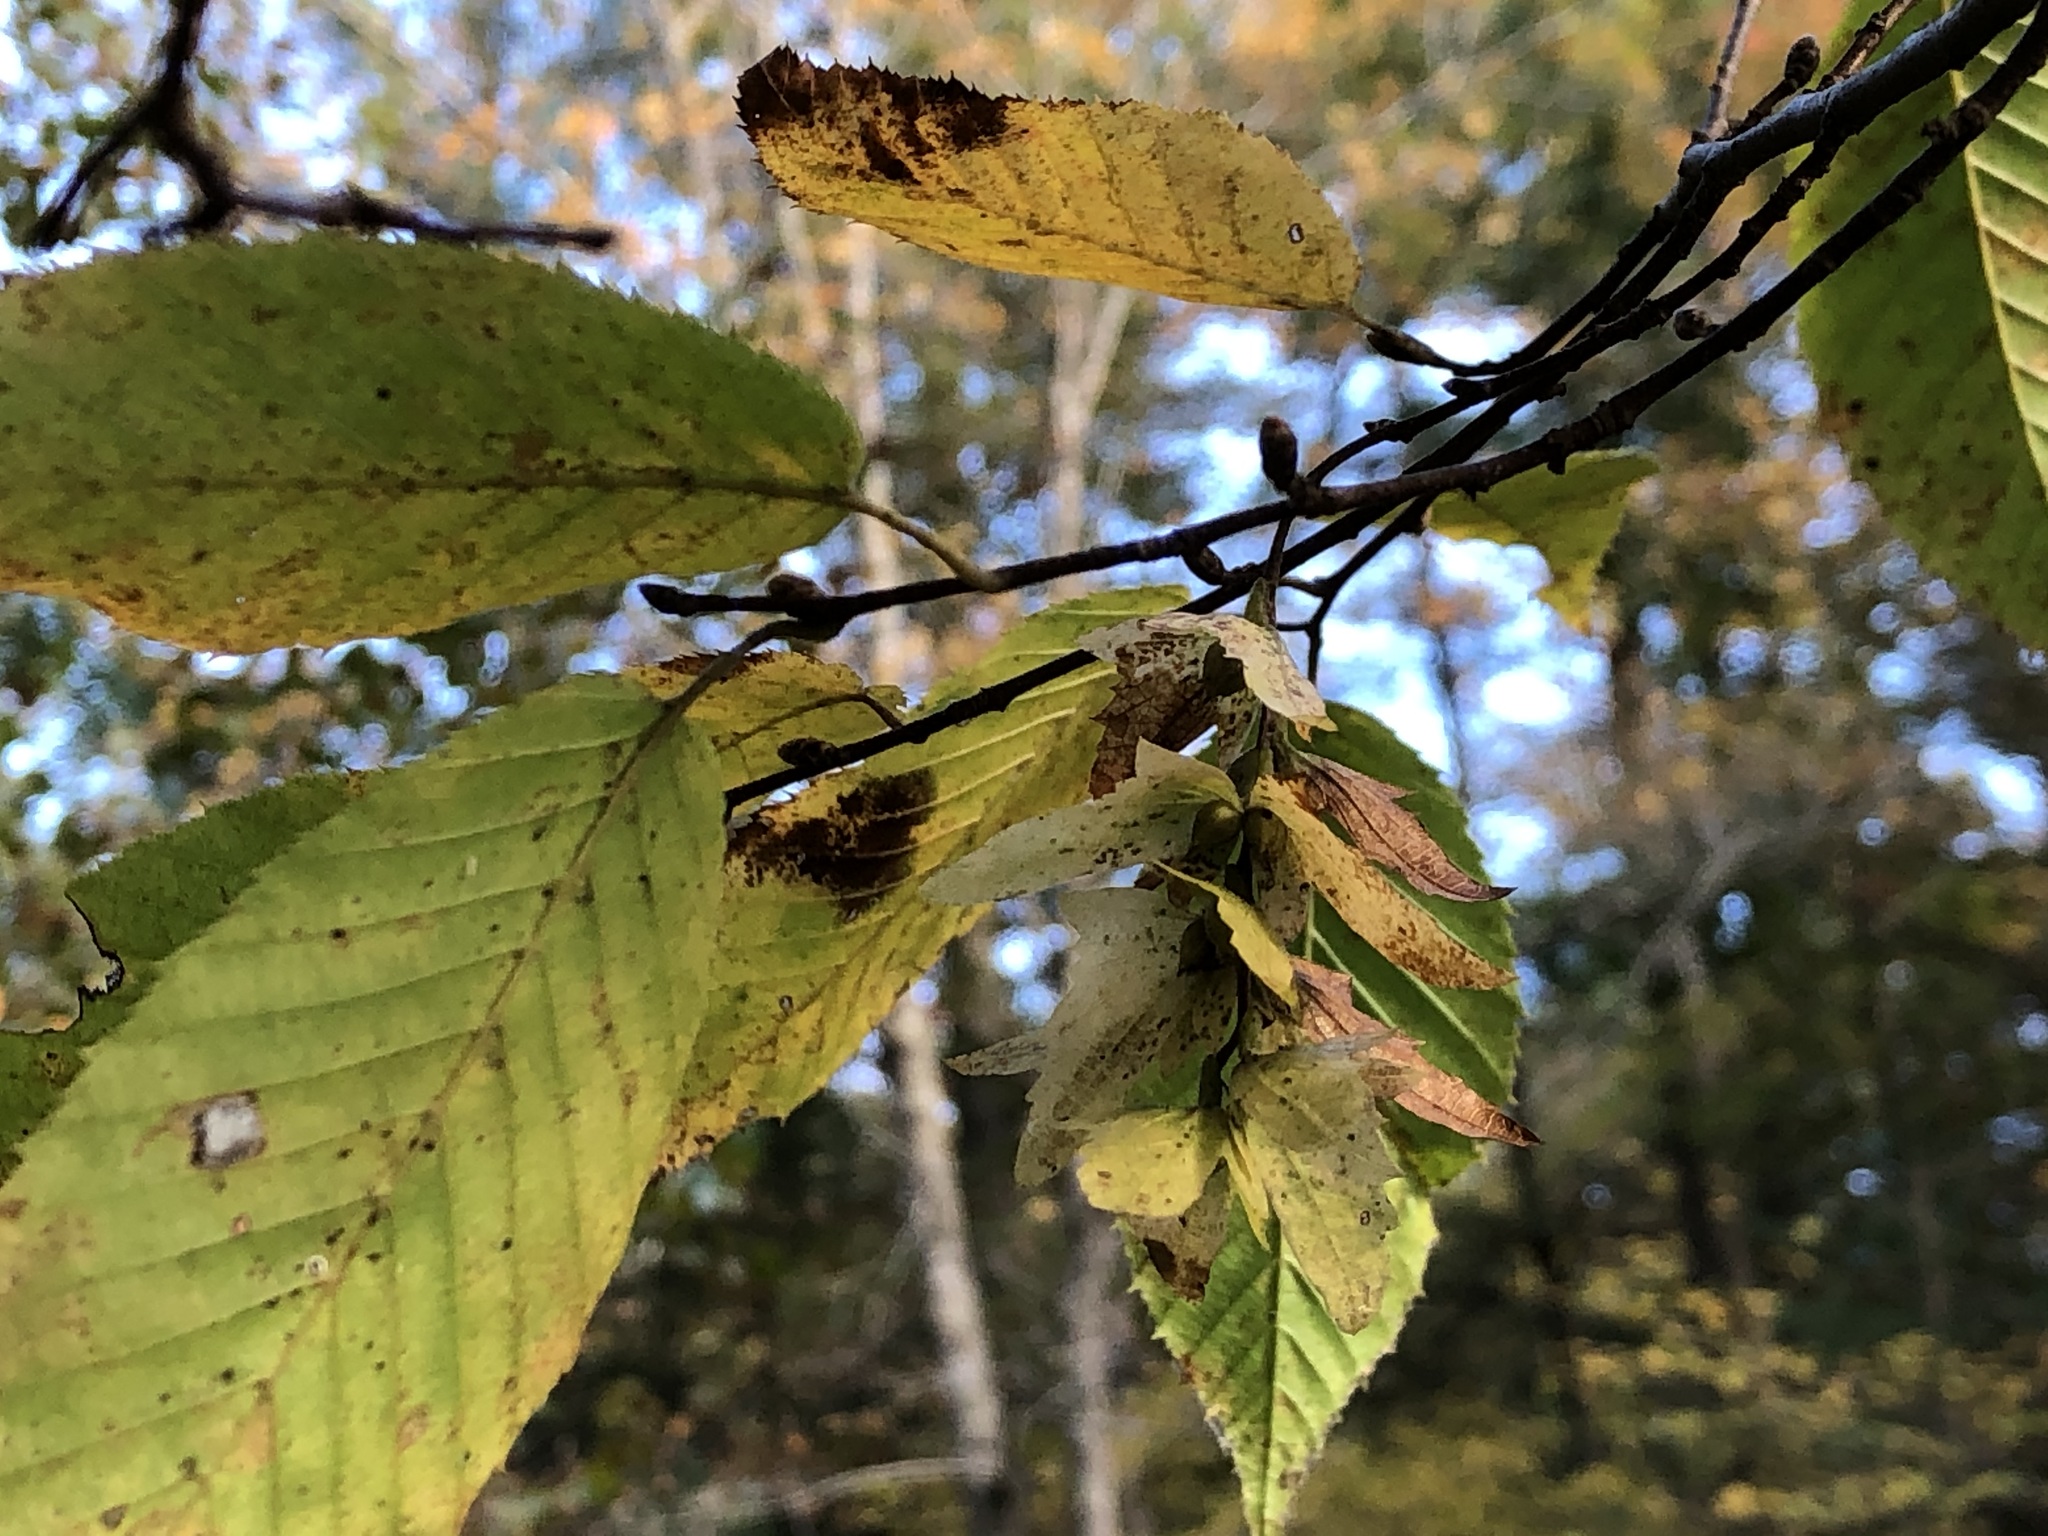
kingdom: Plantae
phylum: Tracheophyta
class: Magnoliopsida
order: Fagales
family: Betulaceae
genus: Carpinus
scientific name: Carpinus caroliniana
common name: American hornbeam
